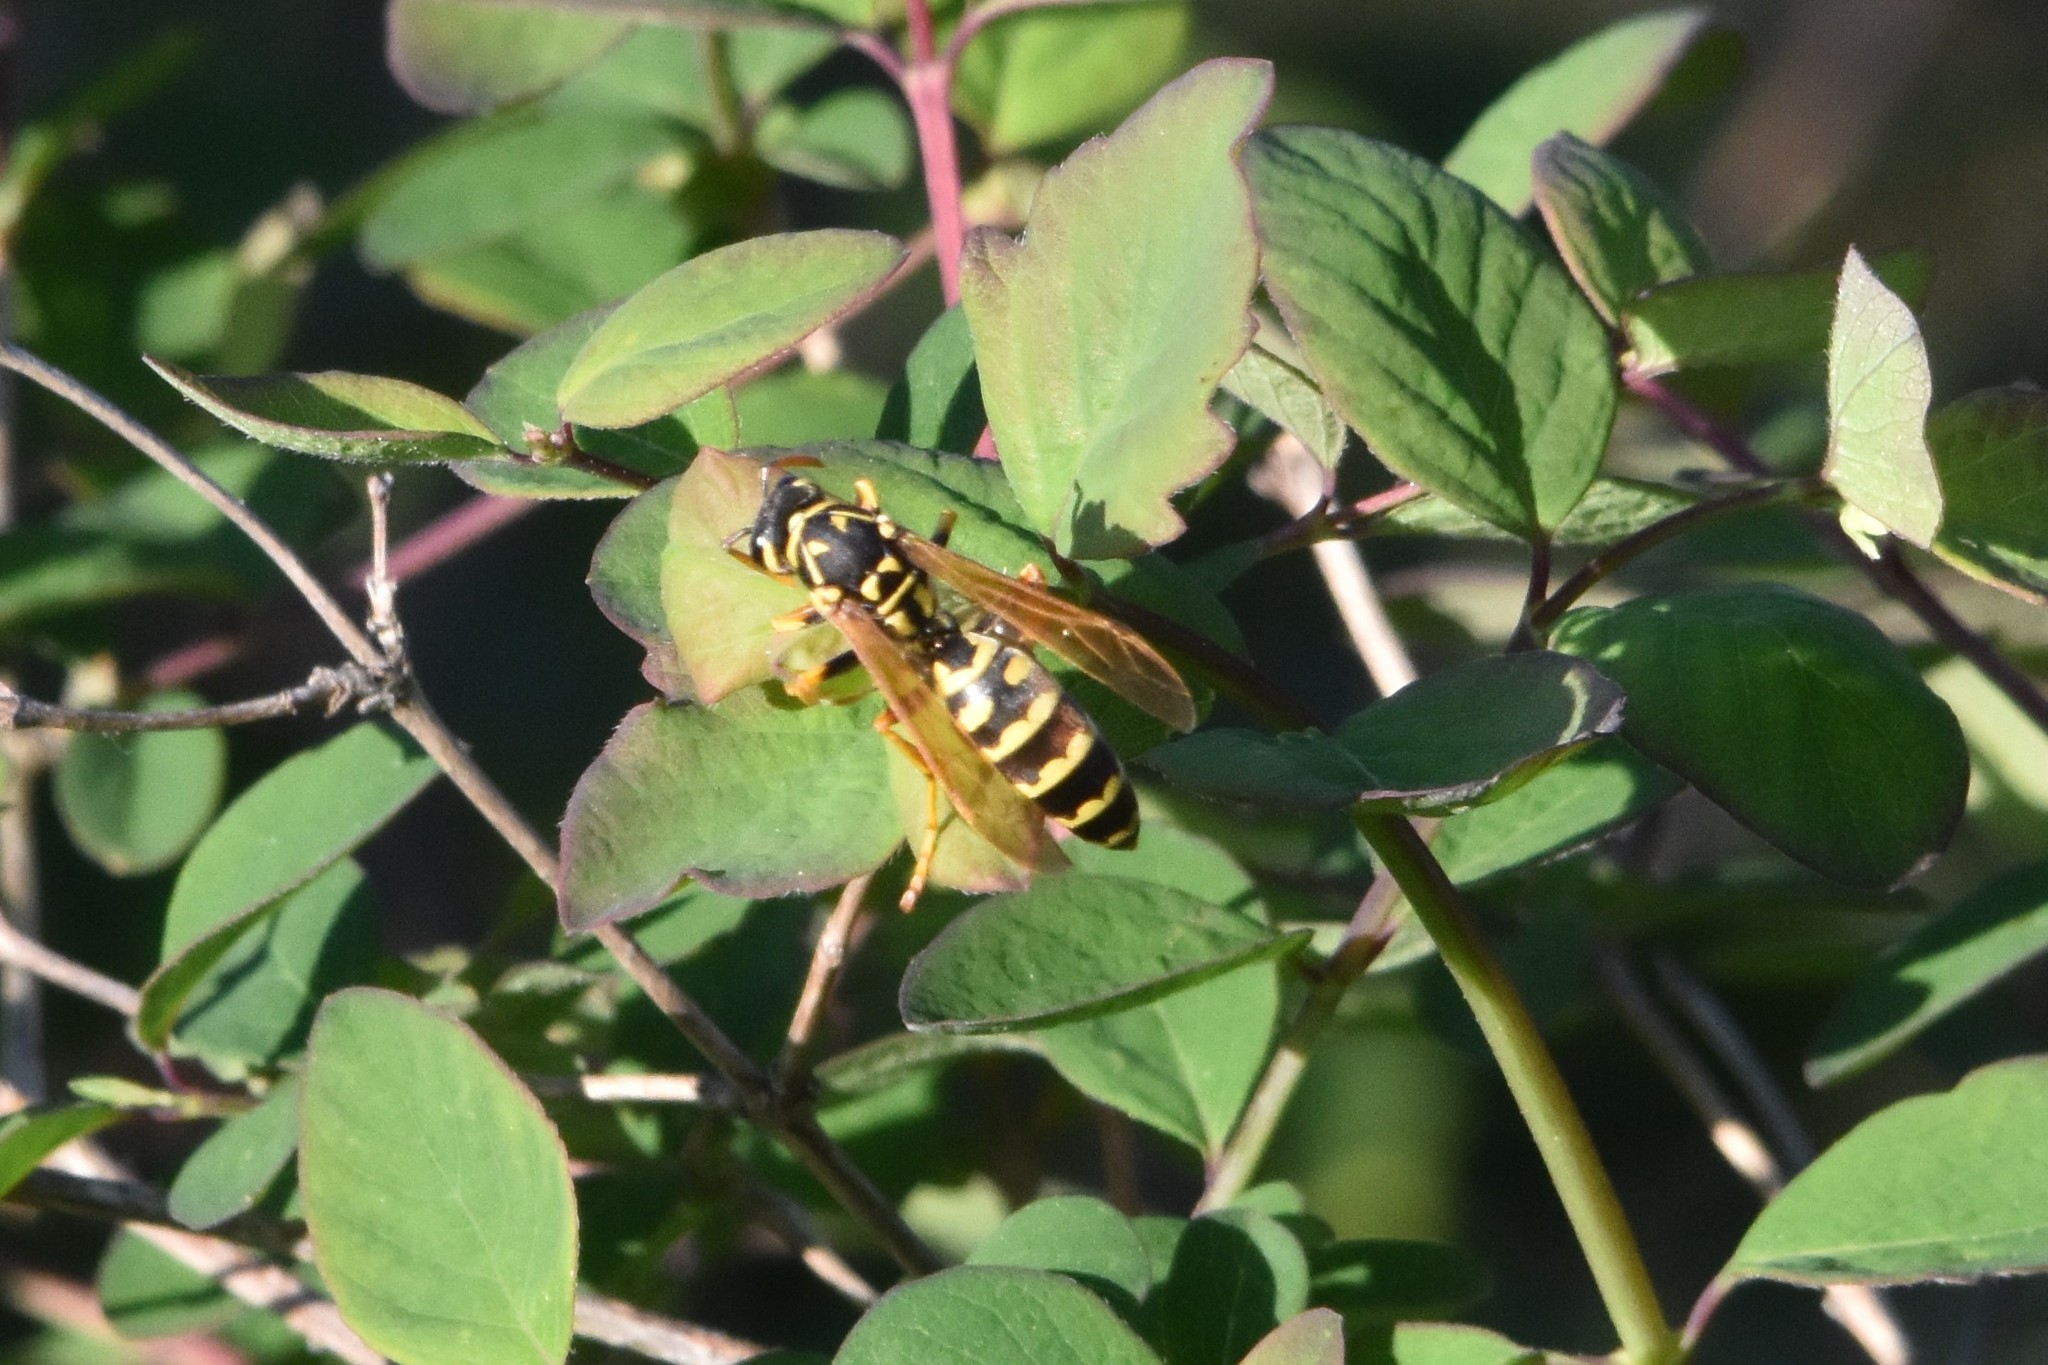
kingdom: Animalia
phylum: Arthropoda
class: Insecta
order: Hymenoptera
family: Eumenidae
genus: Polistes
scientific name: Polistes dominula
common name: Paper wasp
